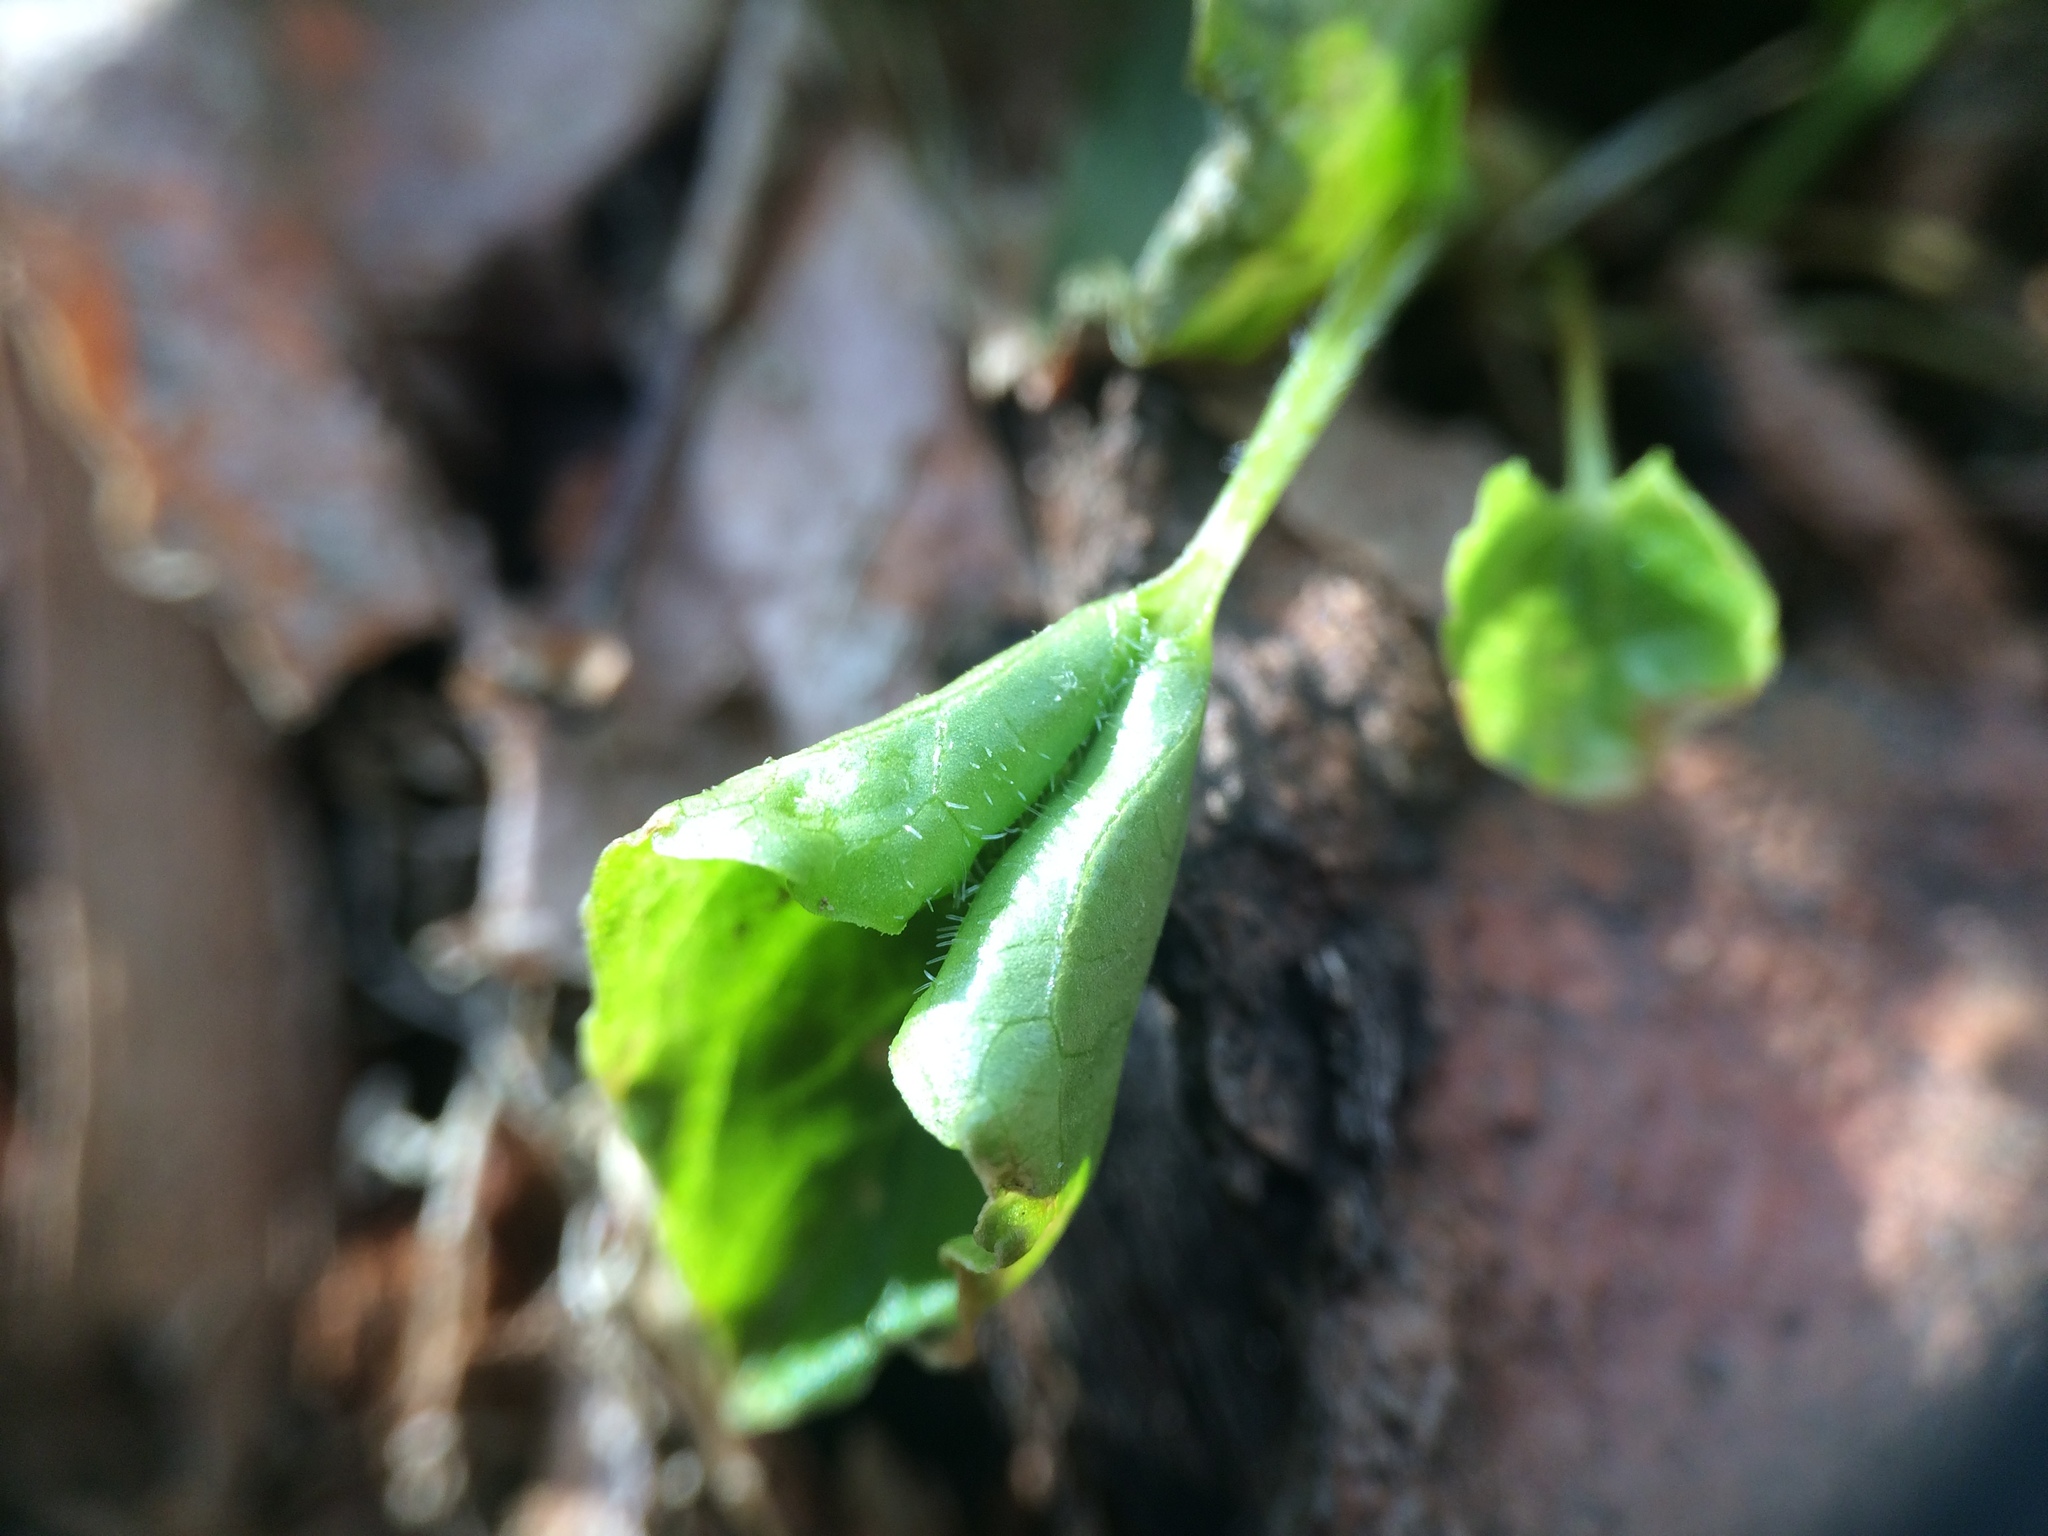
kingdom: Plantae
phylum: Tracheophyta
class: Magnoliopsida
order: Malpighiales
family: Violaceae
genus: Viola
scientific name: Viola incognita
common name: Largeleaf white violet
